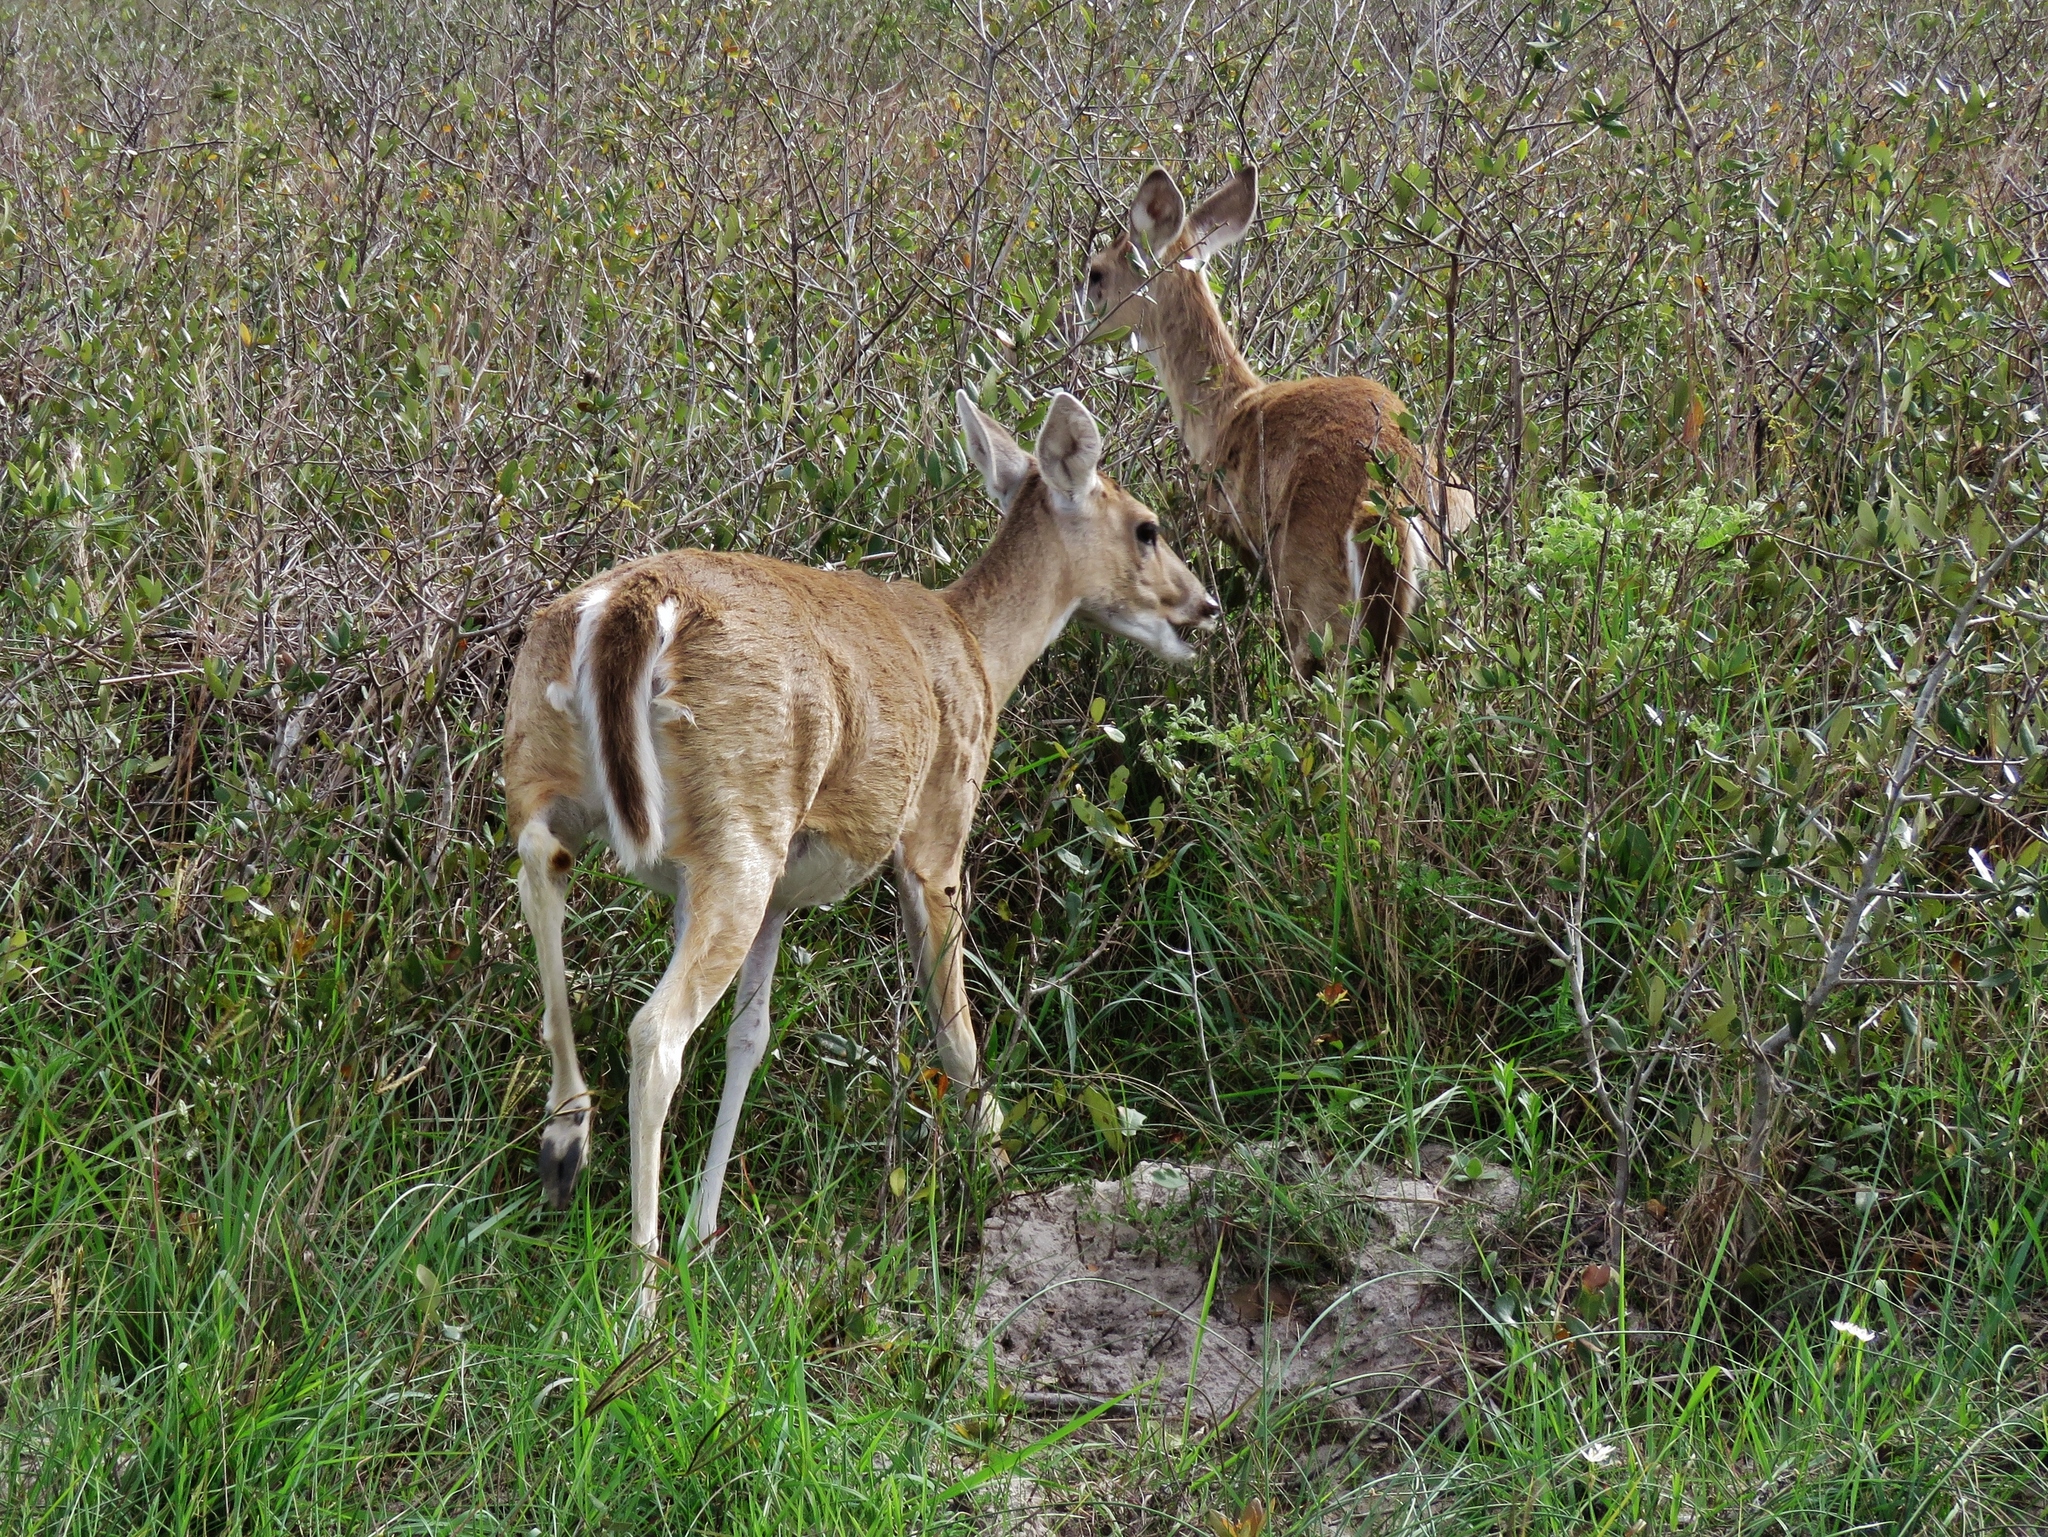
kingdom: Animalia
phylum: Chordata
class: Mammalia
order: Artiodactyla
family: Cervidae
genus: Odocoileus
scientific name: Odocoileus virginianus
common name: White-tailed deer
